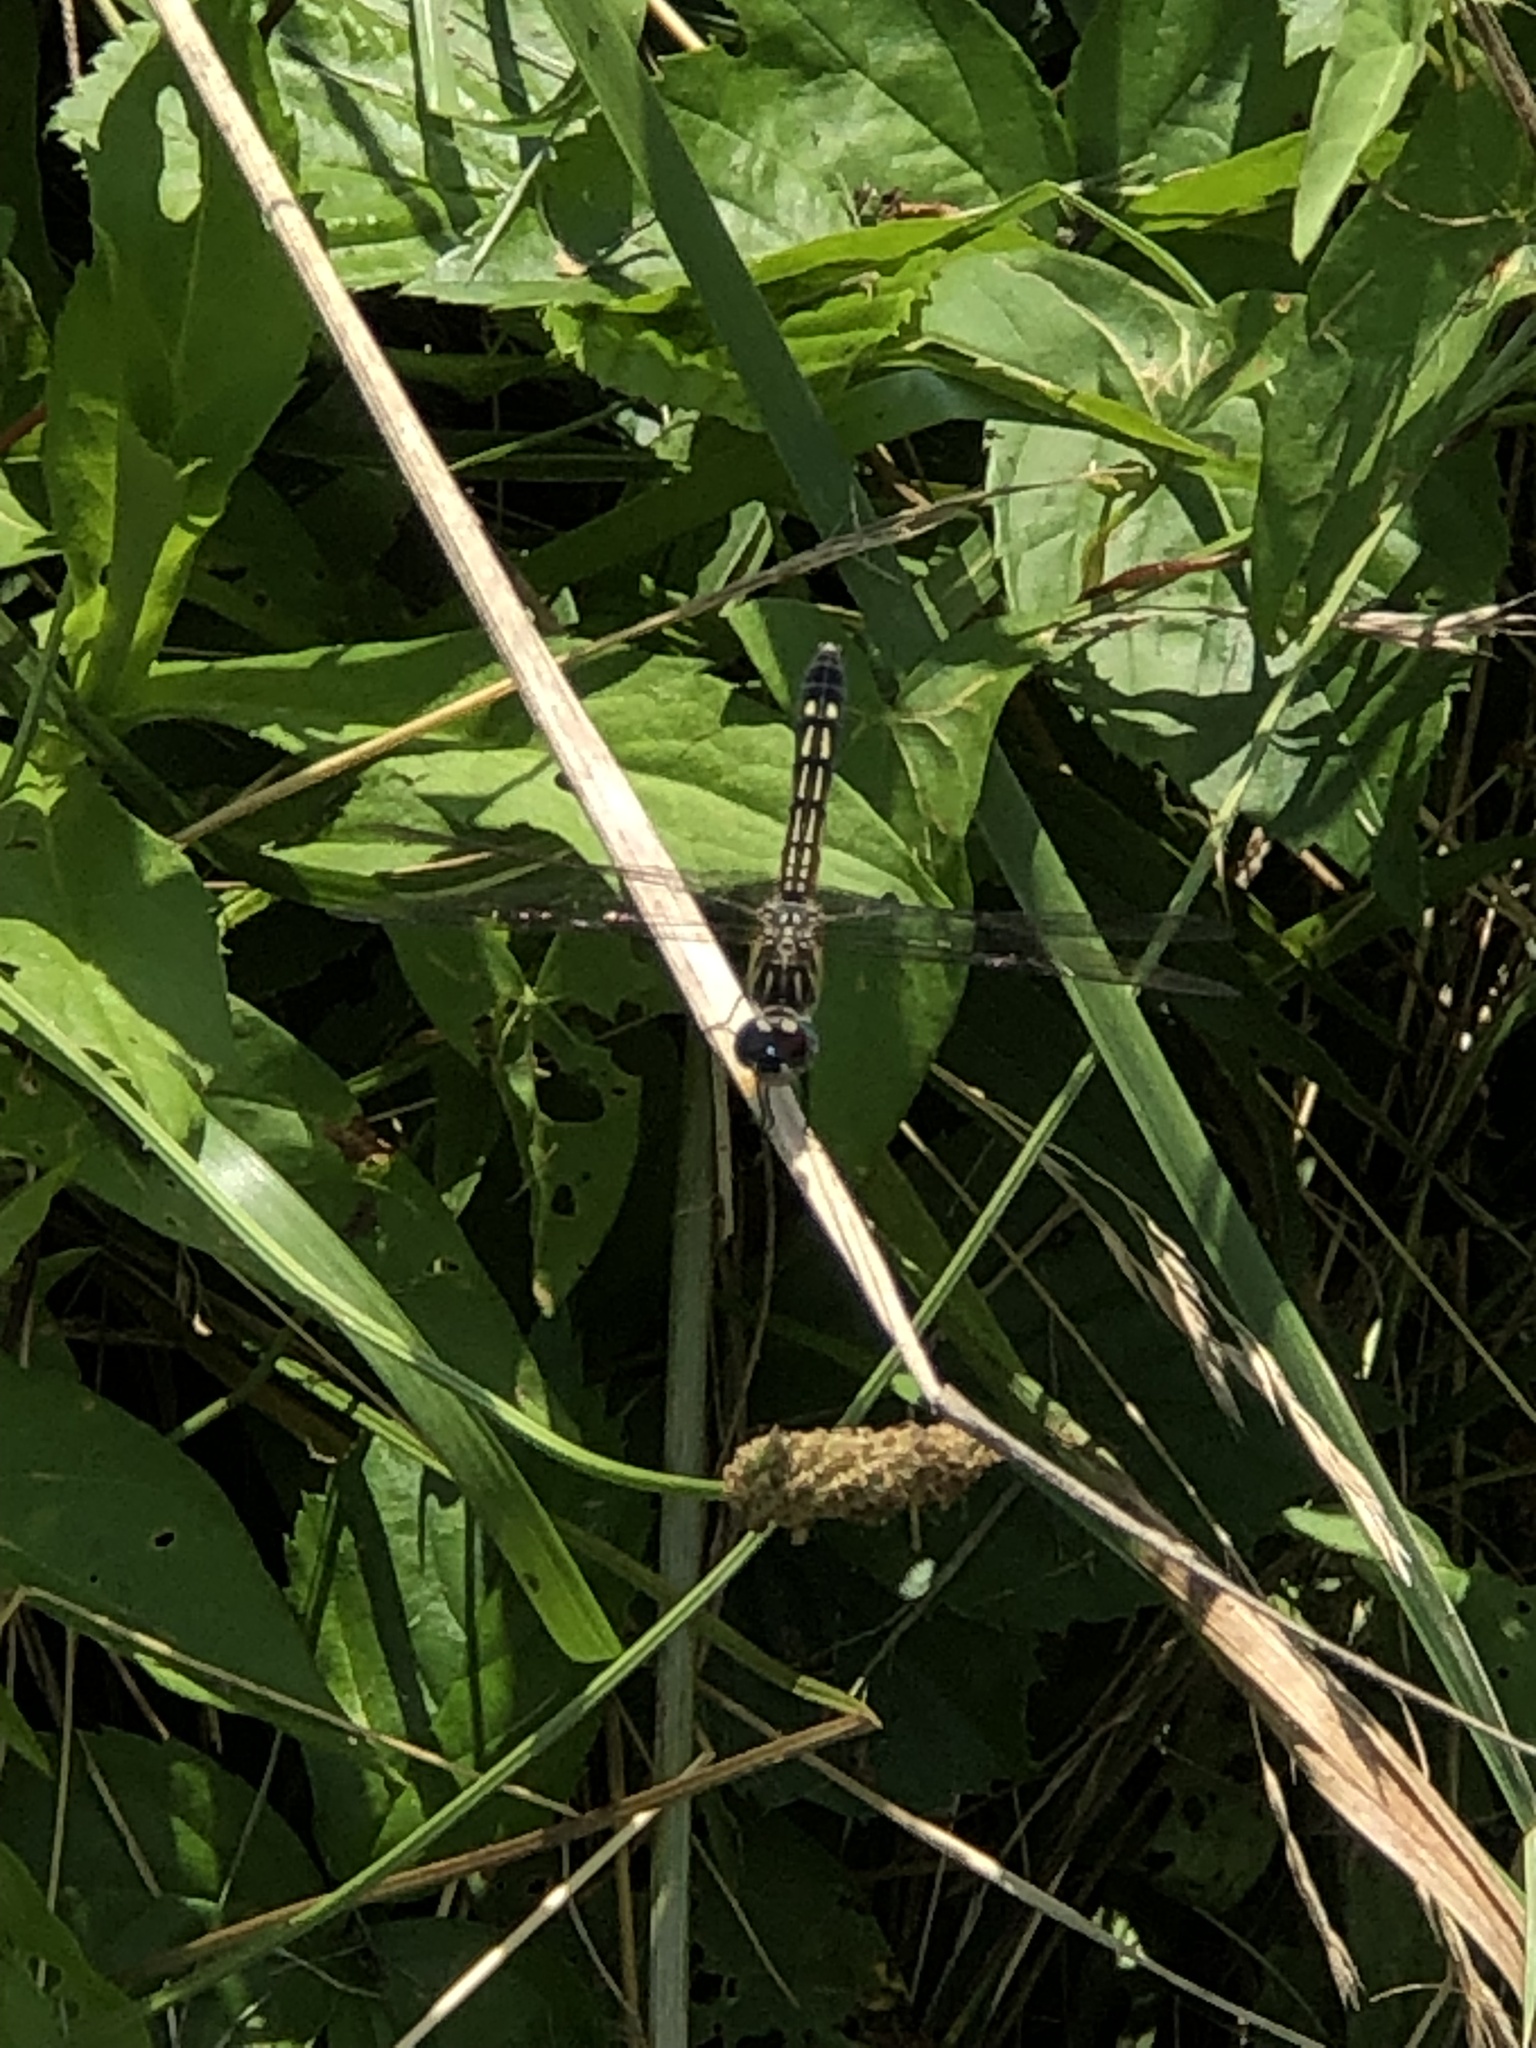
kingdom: Animalia
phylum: Arthropoda
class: Insecta
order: Odonata
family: Libellulidae
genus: Pachydiplax
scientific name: Pachydiplax longipennis
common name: Blue dasher
